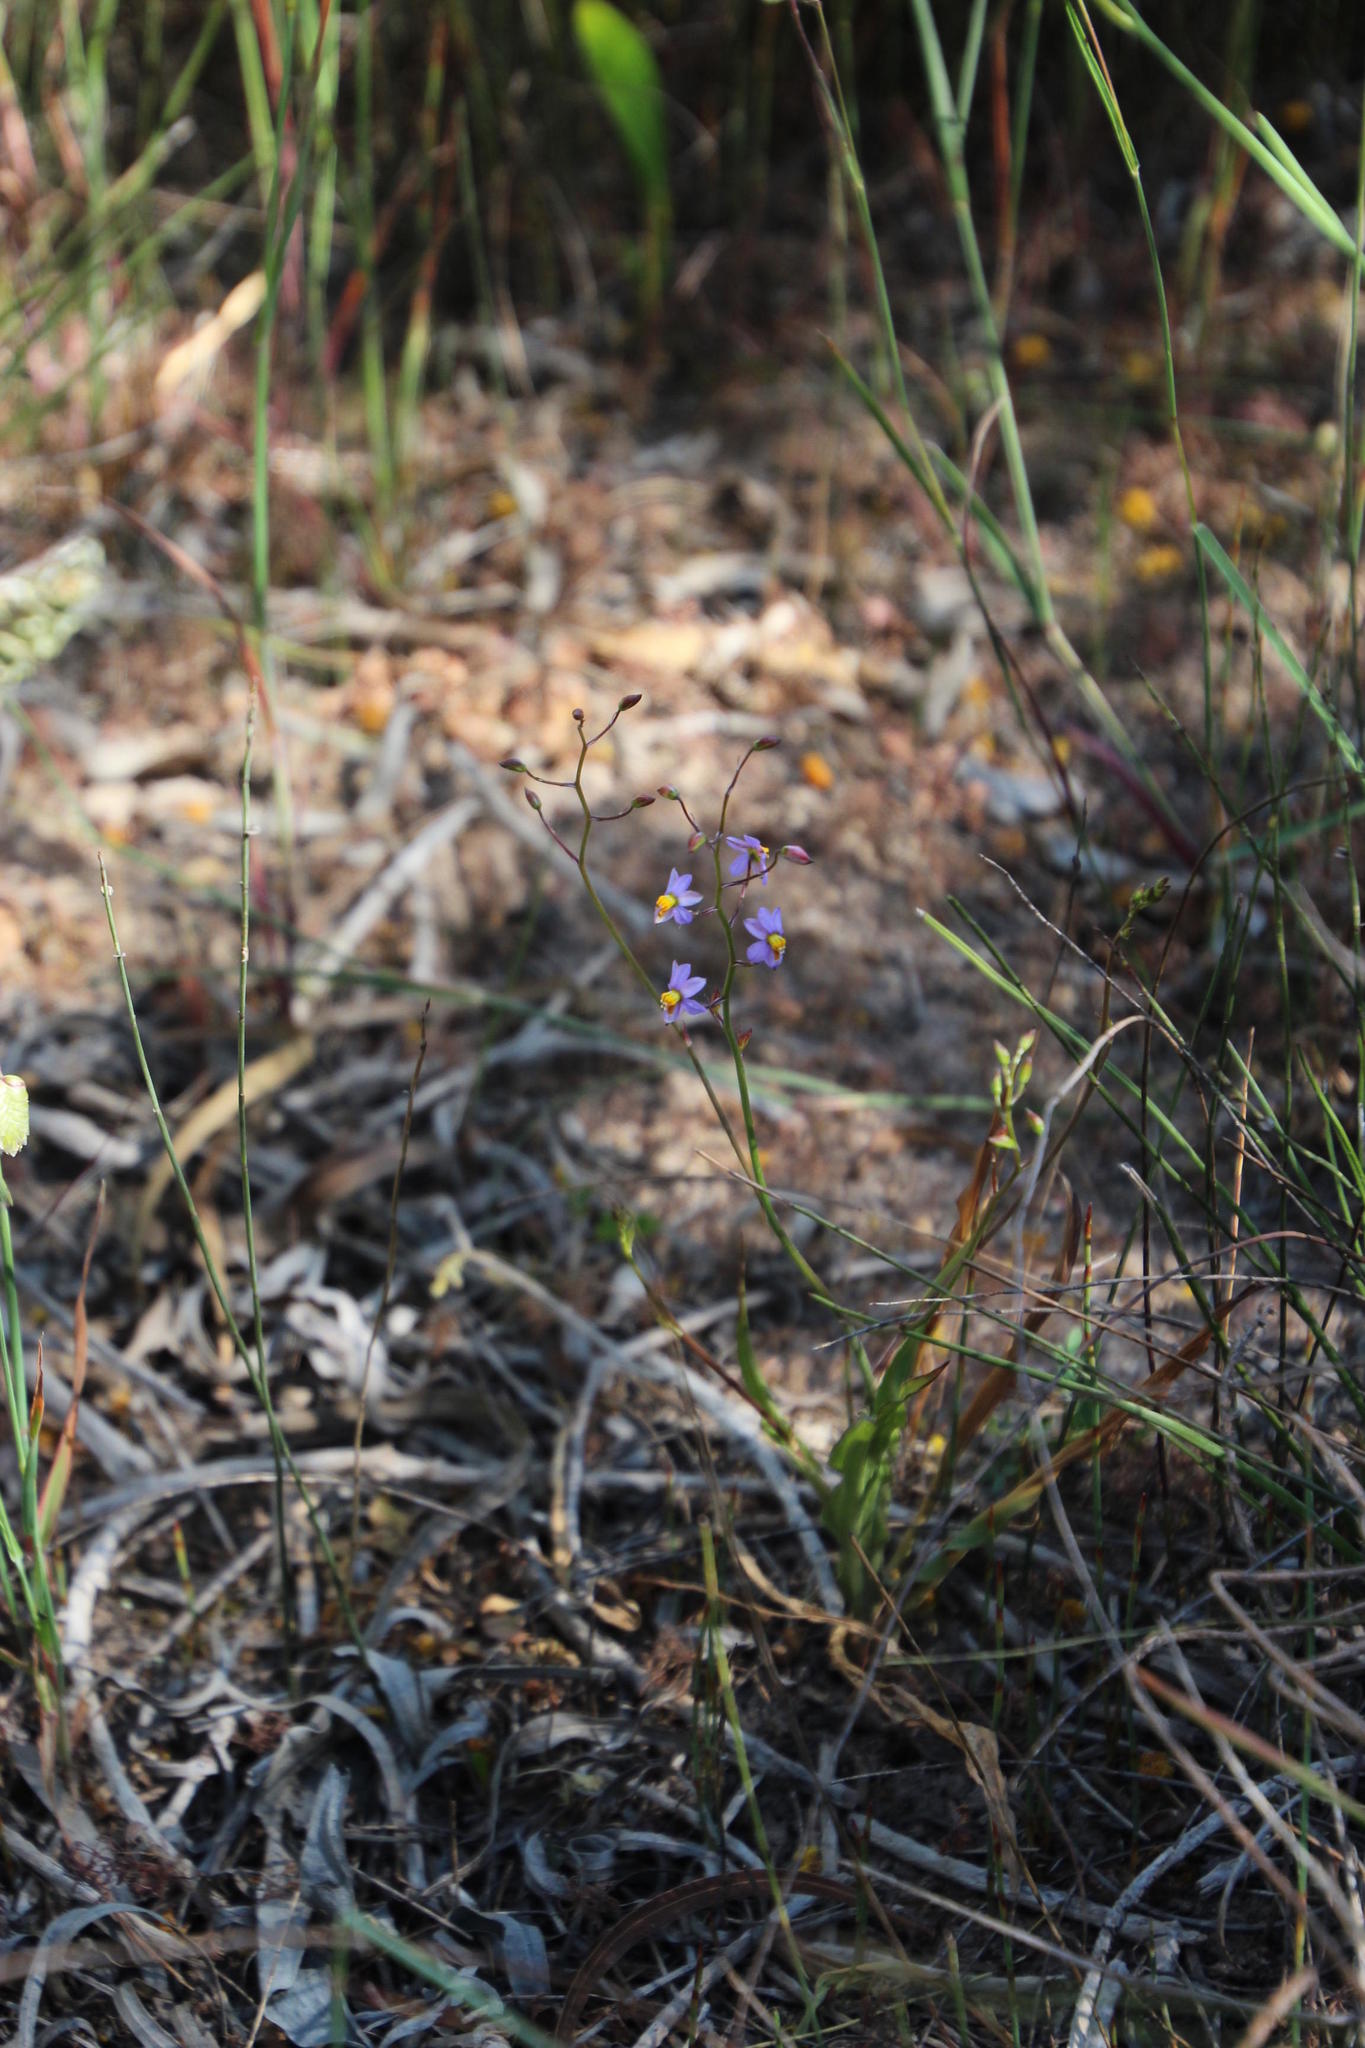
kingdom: Plantae
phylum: Tracheophyta
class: Liliopsida
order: Asparagales
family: Tecophilaeaceae
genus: Cyanella
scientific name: Cyanella hyacinthoides
